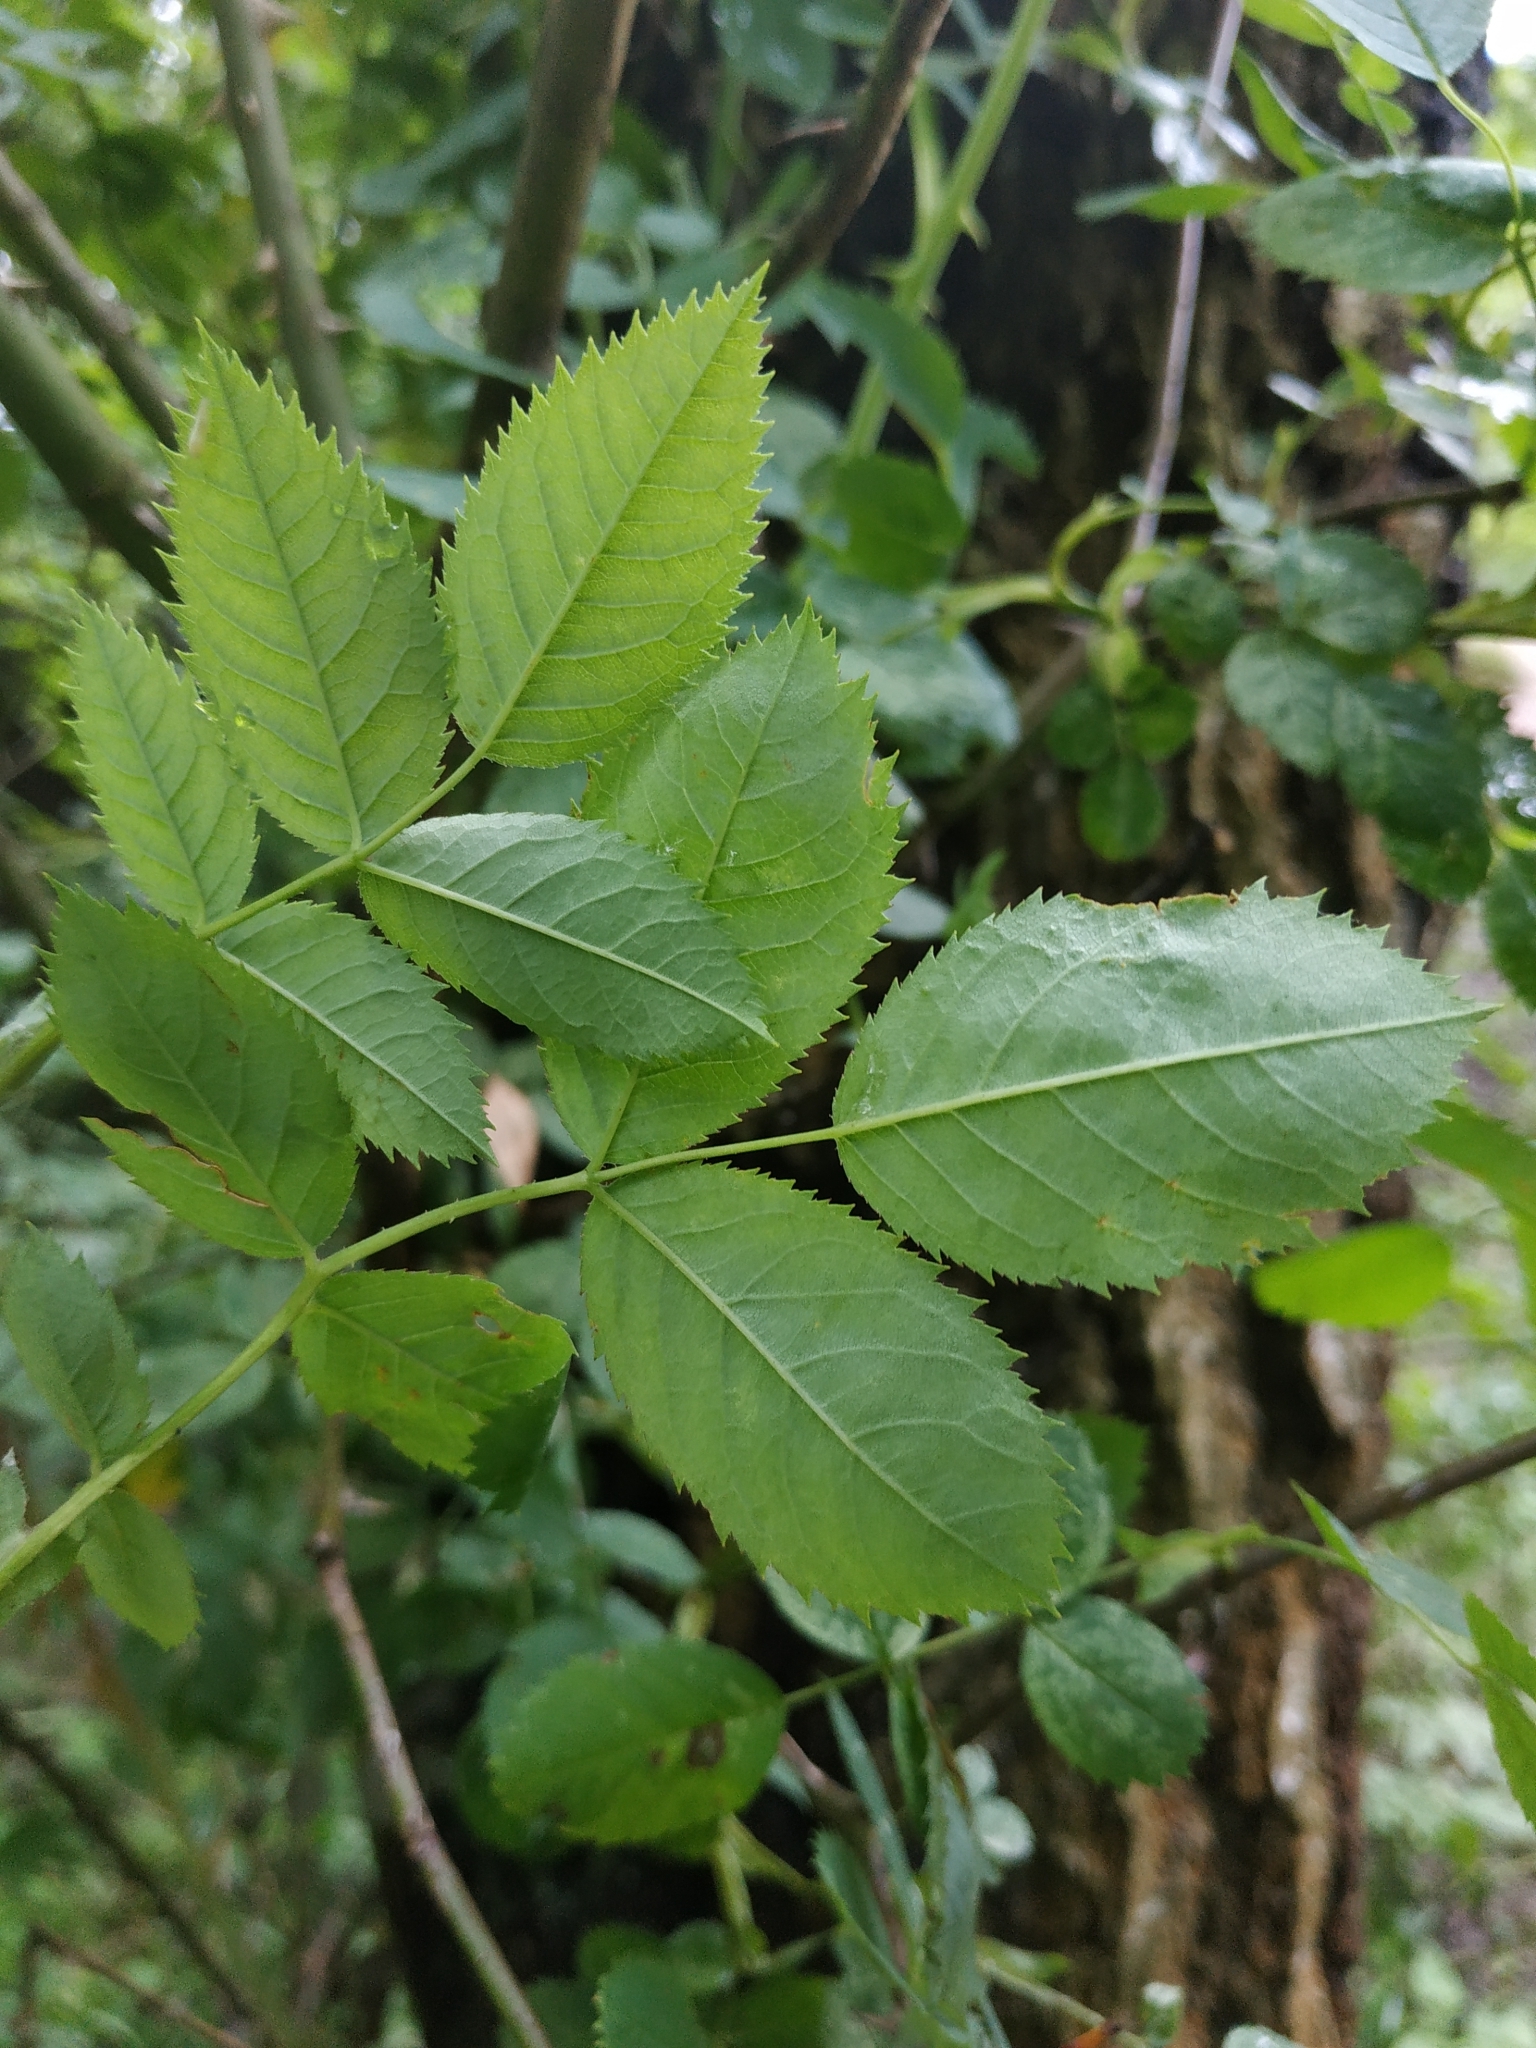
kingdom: Plantae
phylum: Tracheophyta
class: Magnoliopsida
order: Rosales
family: Rosaceae
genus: Rosa
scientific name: Rosa canina
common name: Dog rose
